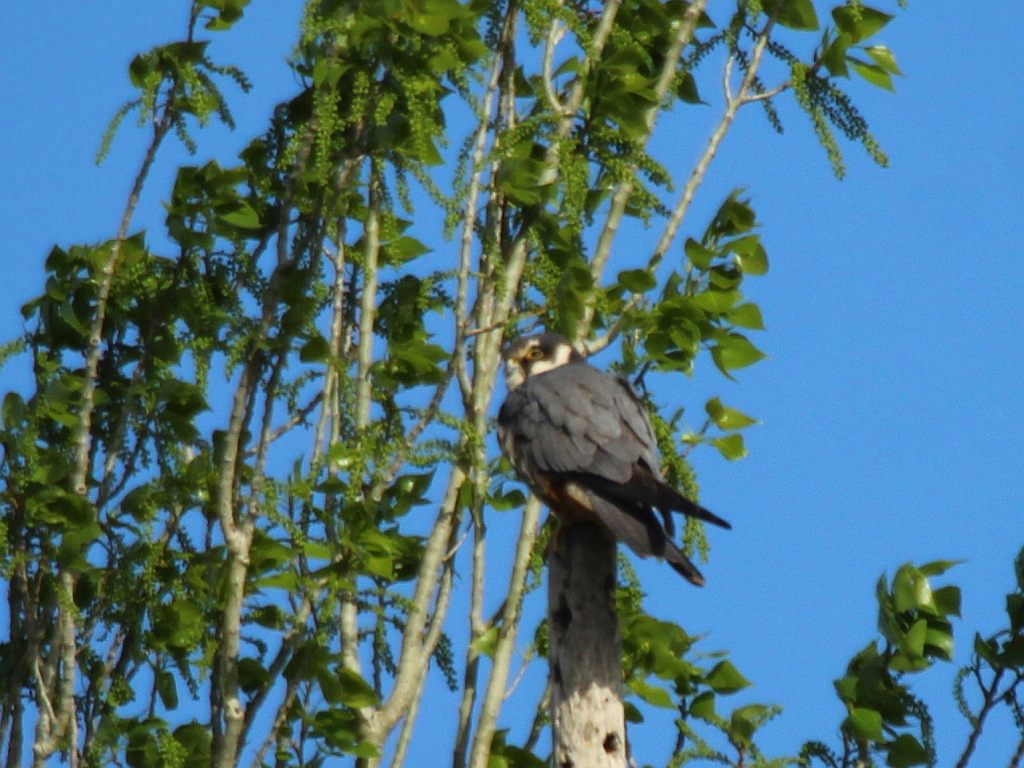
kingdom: Animalia
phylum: Chordata
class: Aves
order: Falconiformes
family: Falconidae
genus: Falco
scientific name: Falco subbuteo
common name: Eurasian hobby
